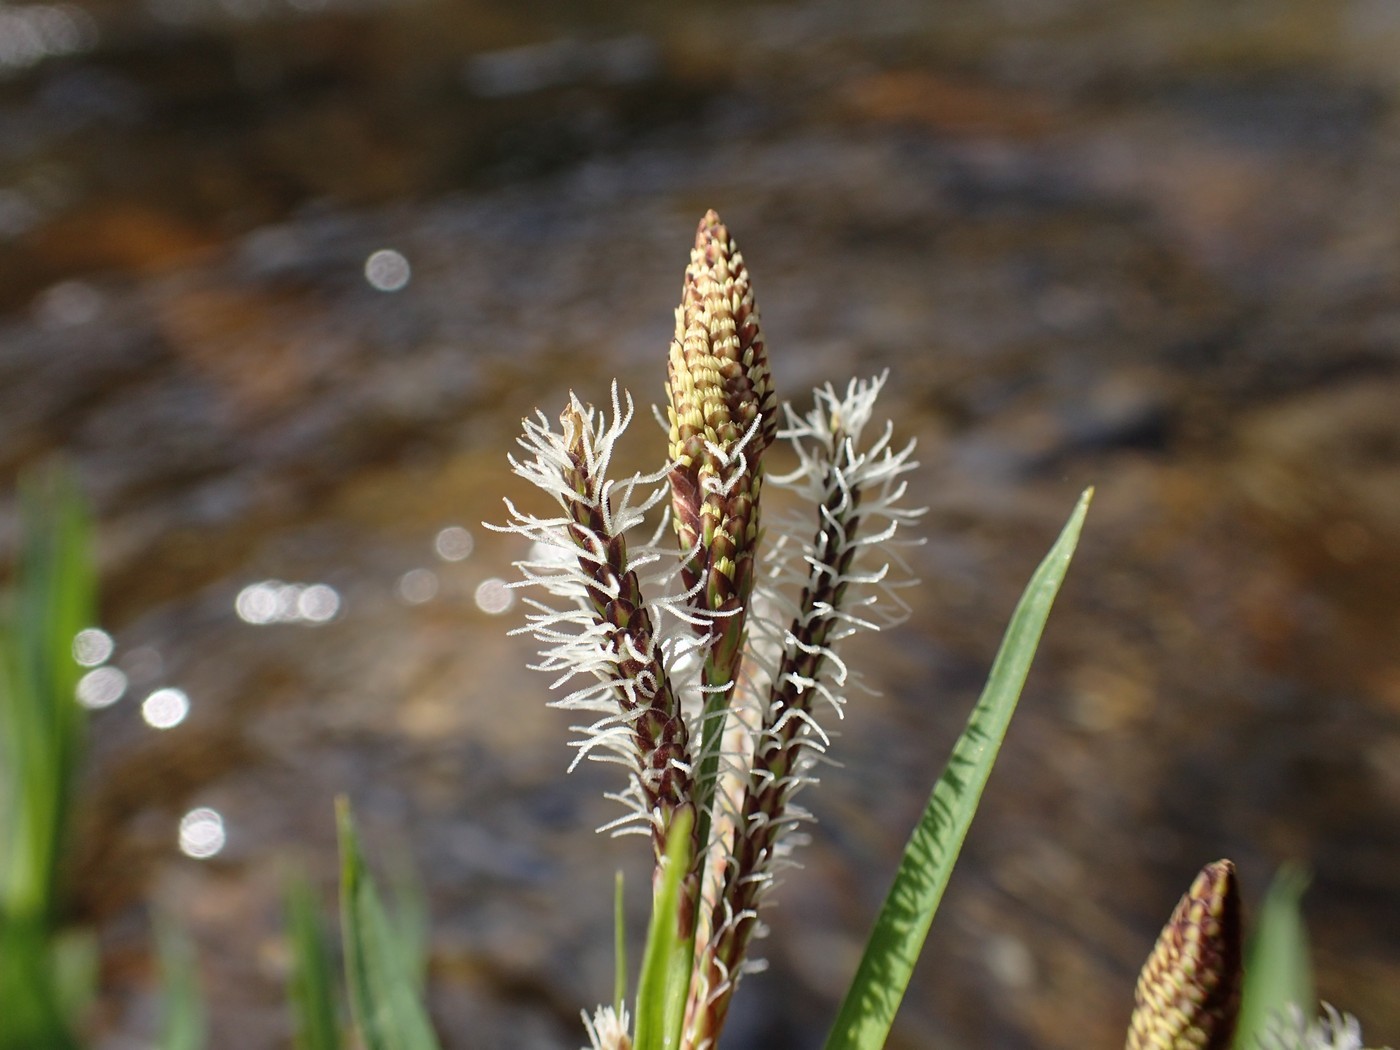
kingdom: Plantae
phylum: Tracheophyta
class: Liliopsida
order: Poales
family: Cyperaceae
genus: Carex
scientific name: Carex torta
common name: Twisted sedge
